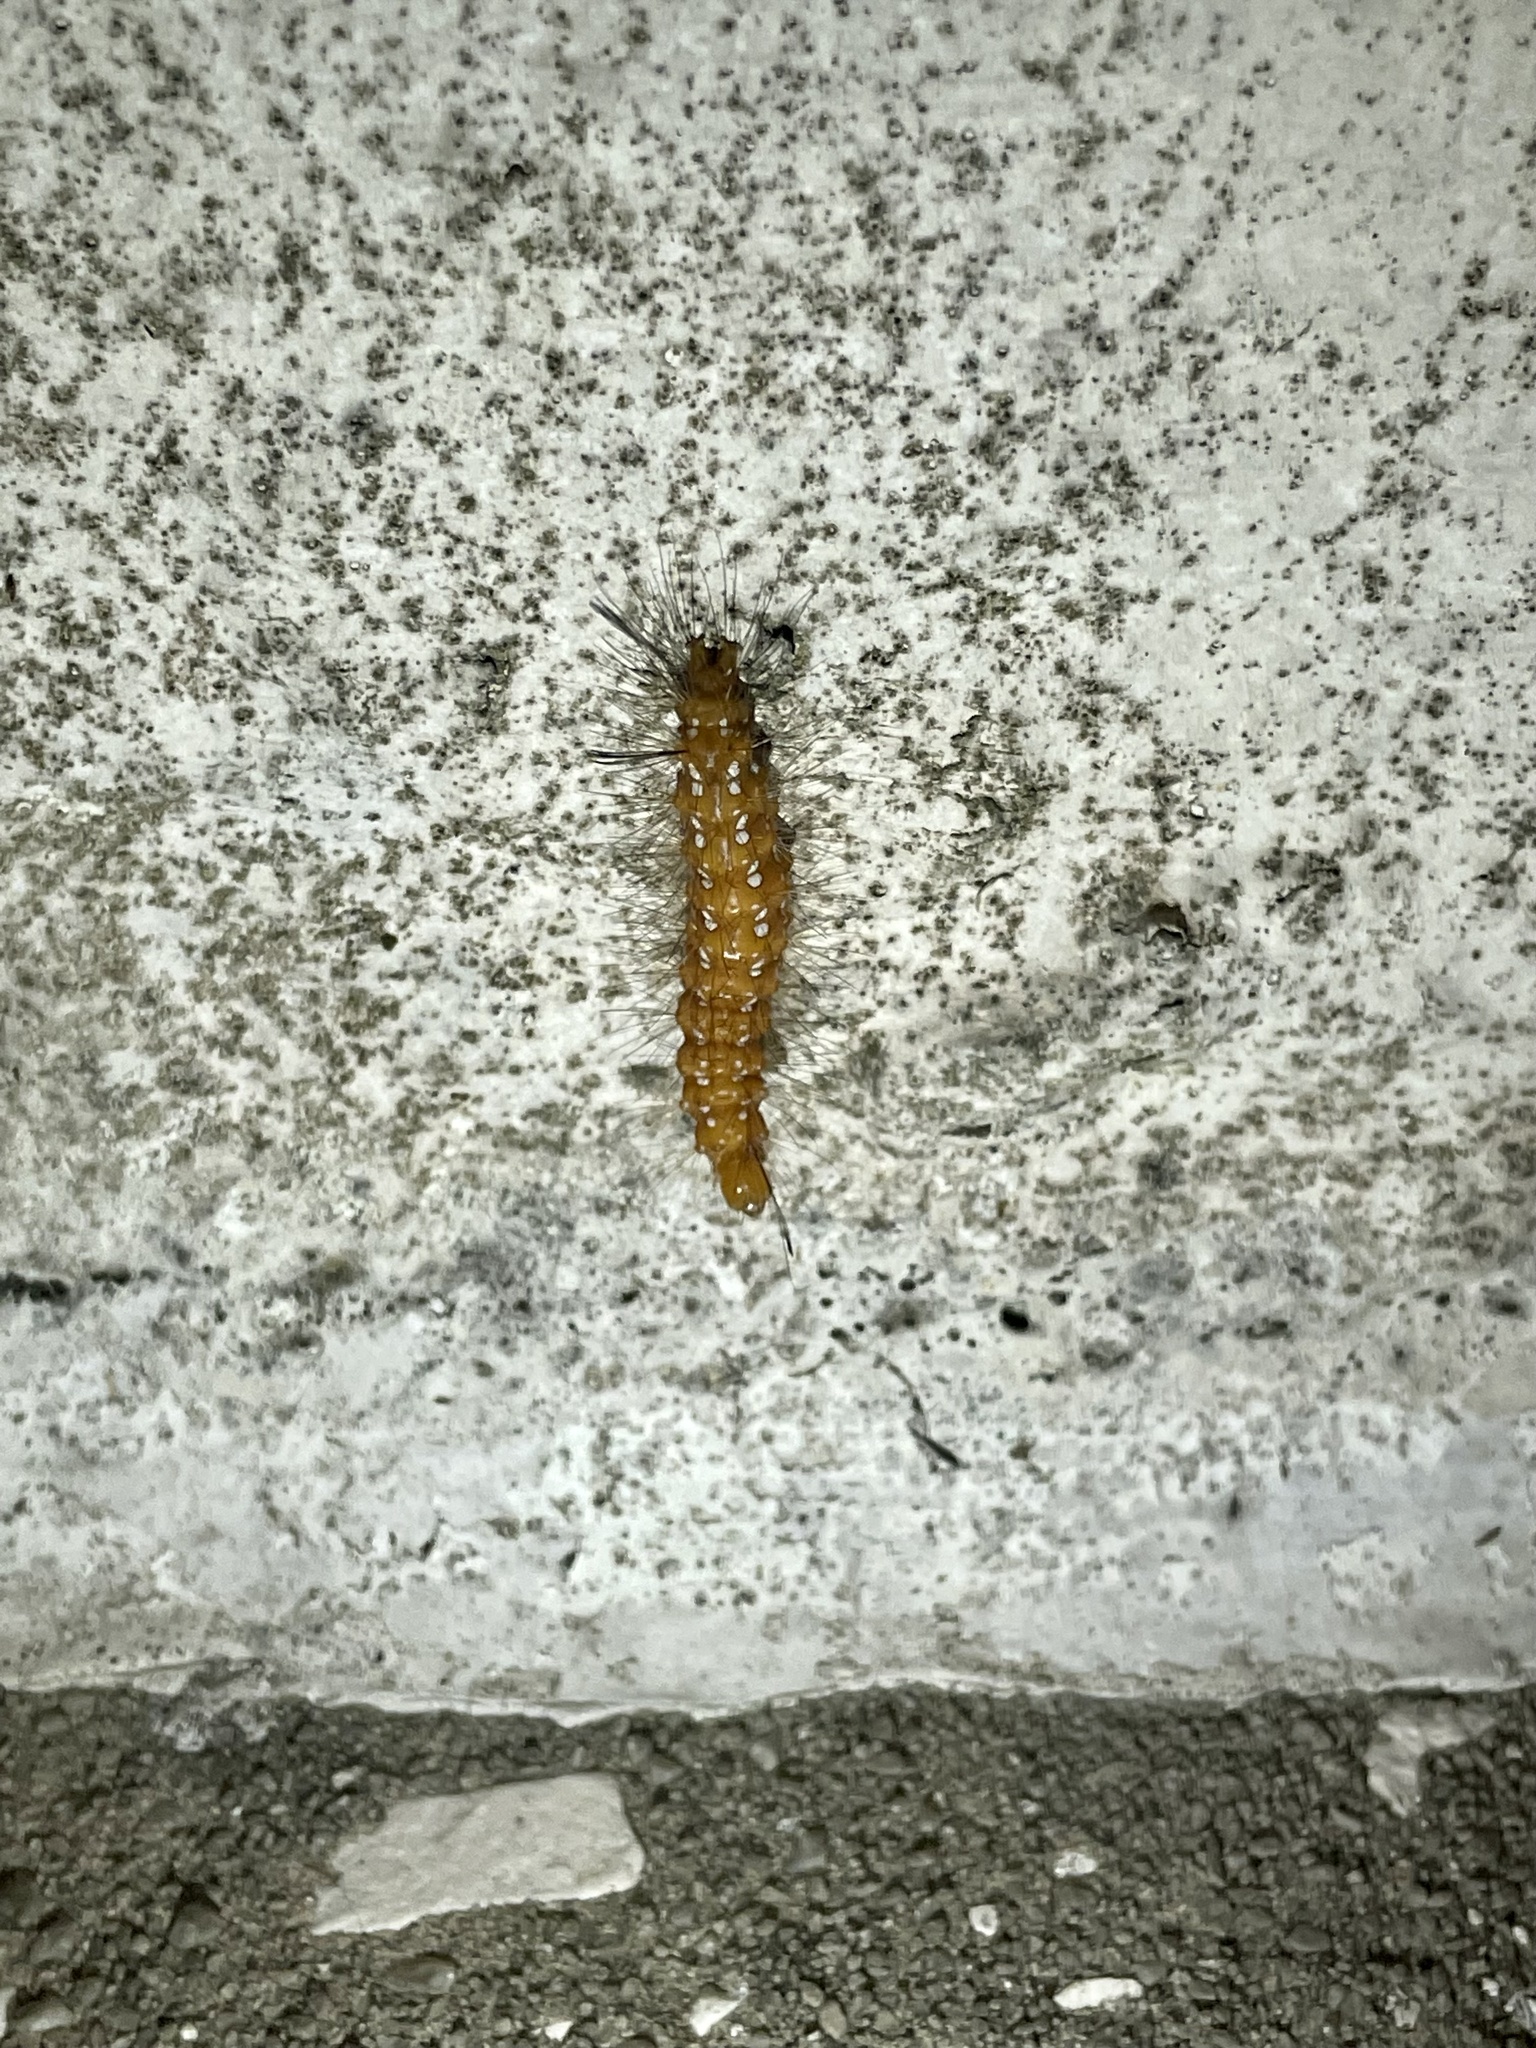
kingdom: Animalia
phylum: Arthropoda
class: Insecta
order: Lepidoptera
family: Erebidae
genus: Empyreuma
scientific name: Empyreuma pugione
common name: Spotted oleander caterpillar moth
